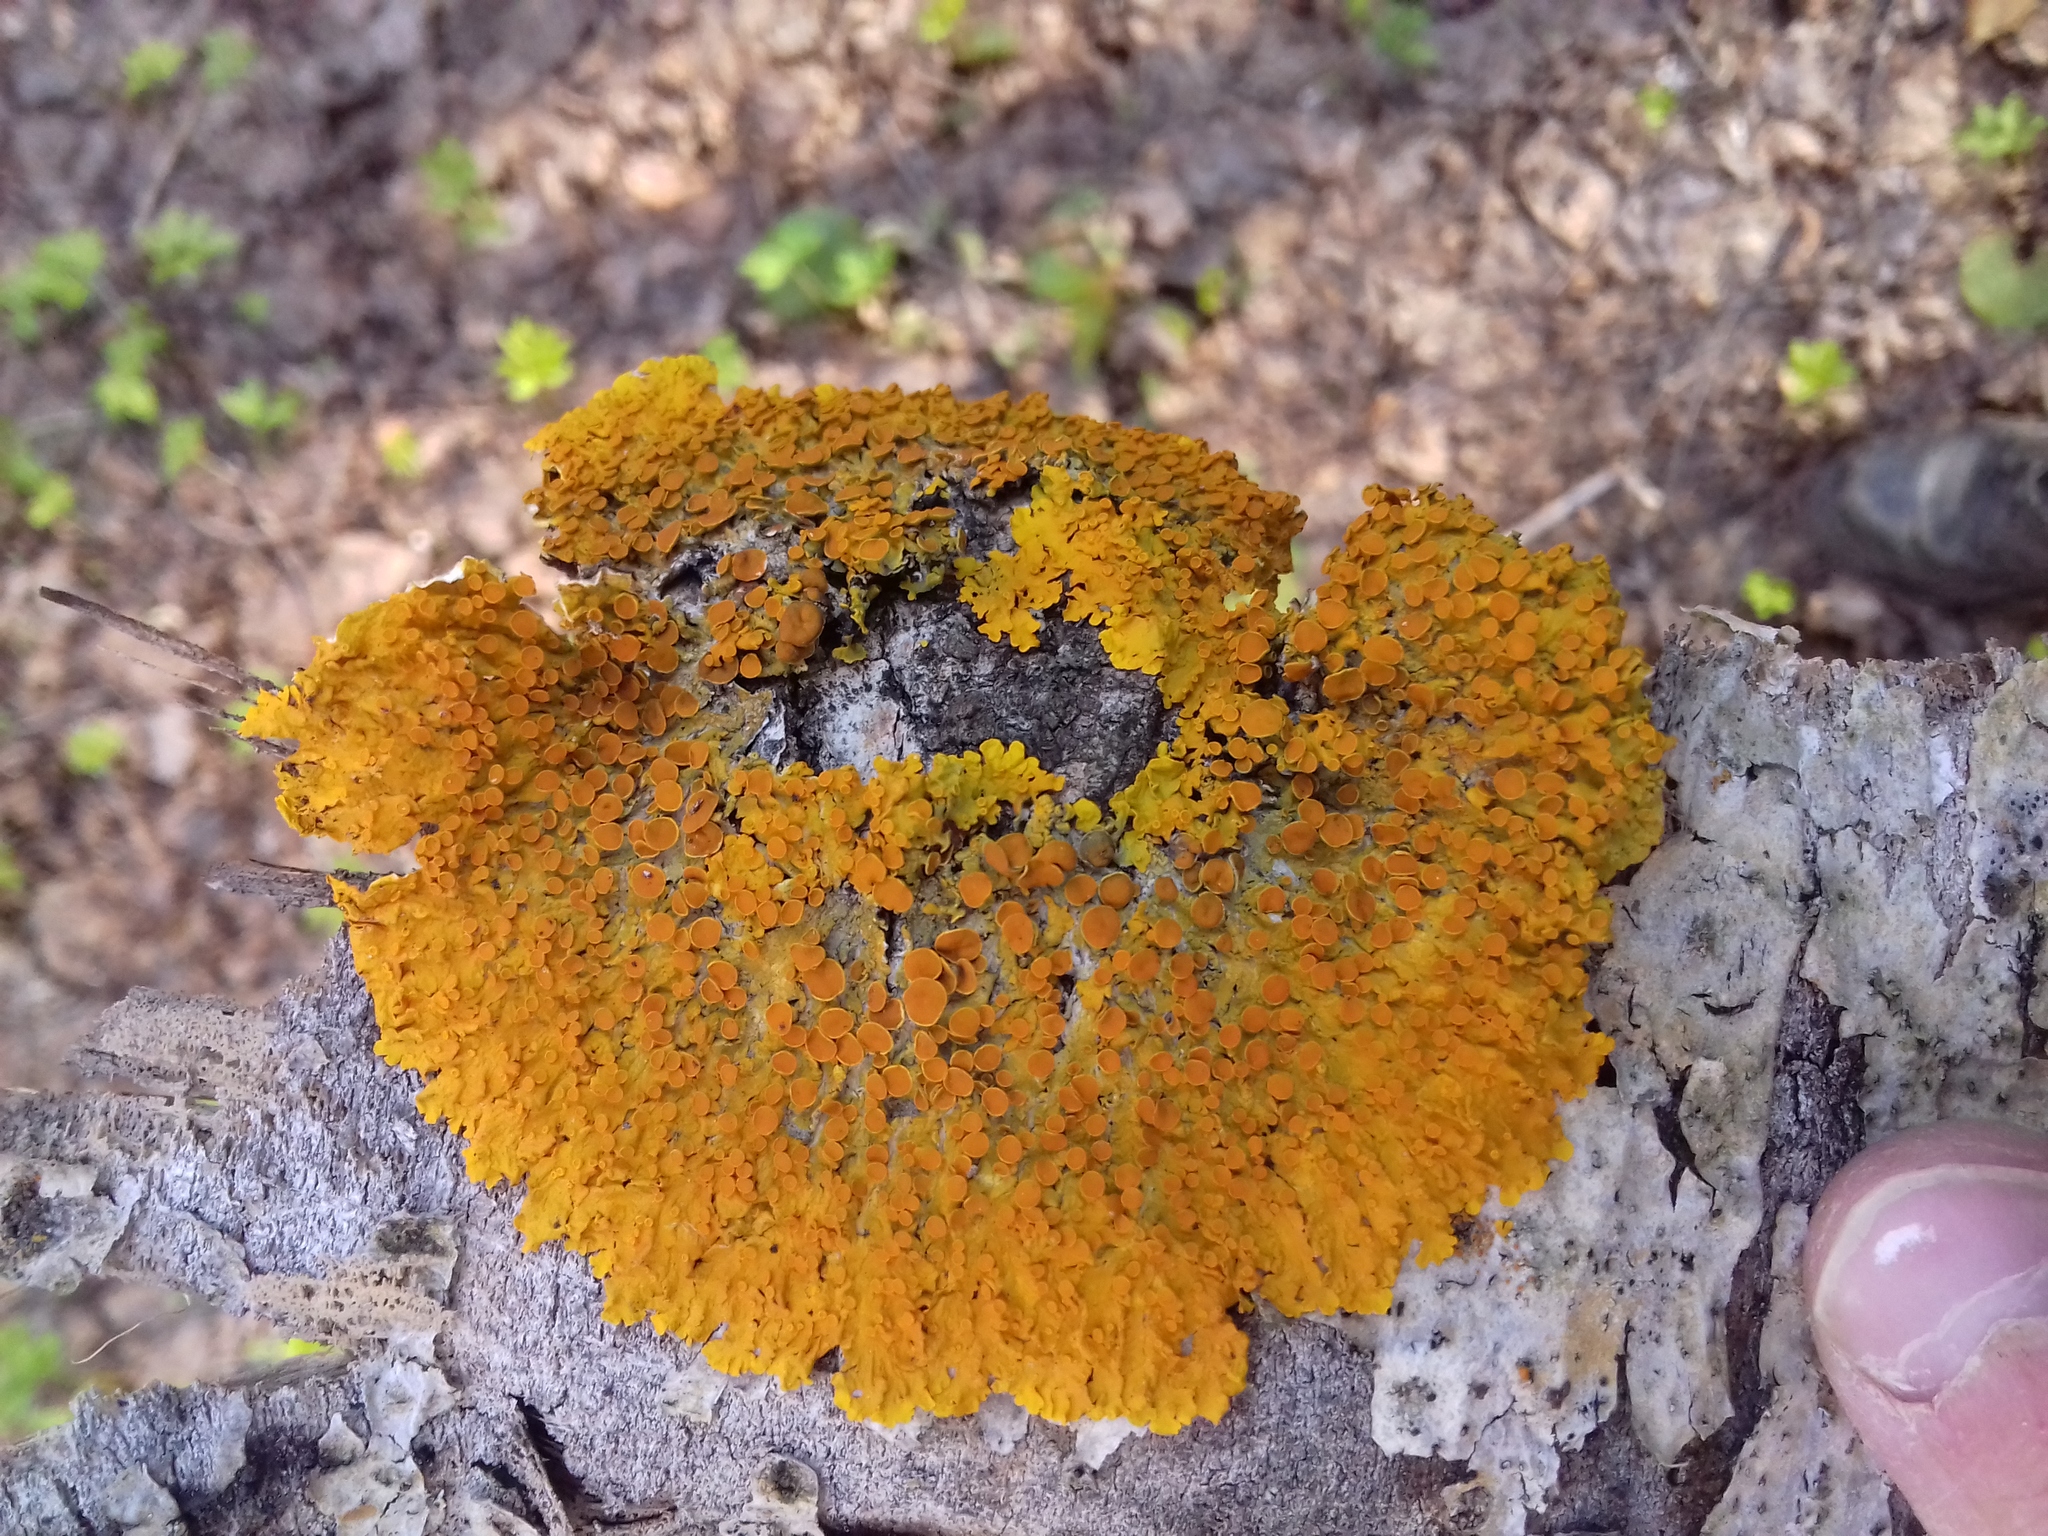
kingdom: Fungi
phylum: Ascomycota
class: Lecanoromycetes
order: Teloschistales
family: Teloschistaceae
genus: Xanthoria
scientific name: Xanthoria parietina
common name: Common orange lichen
